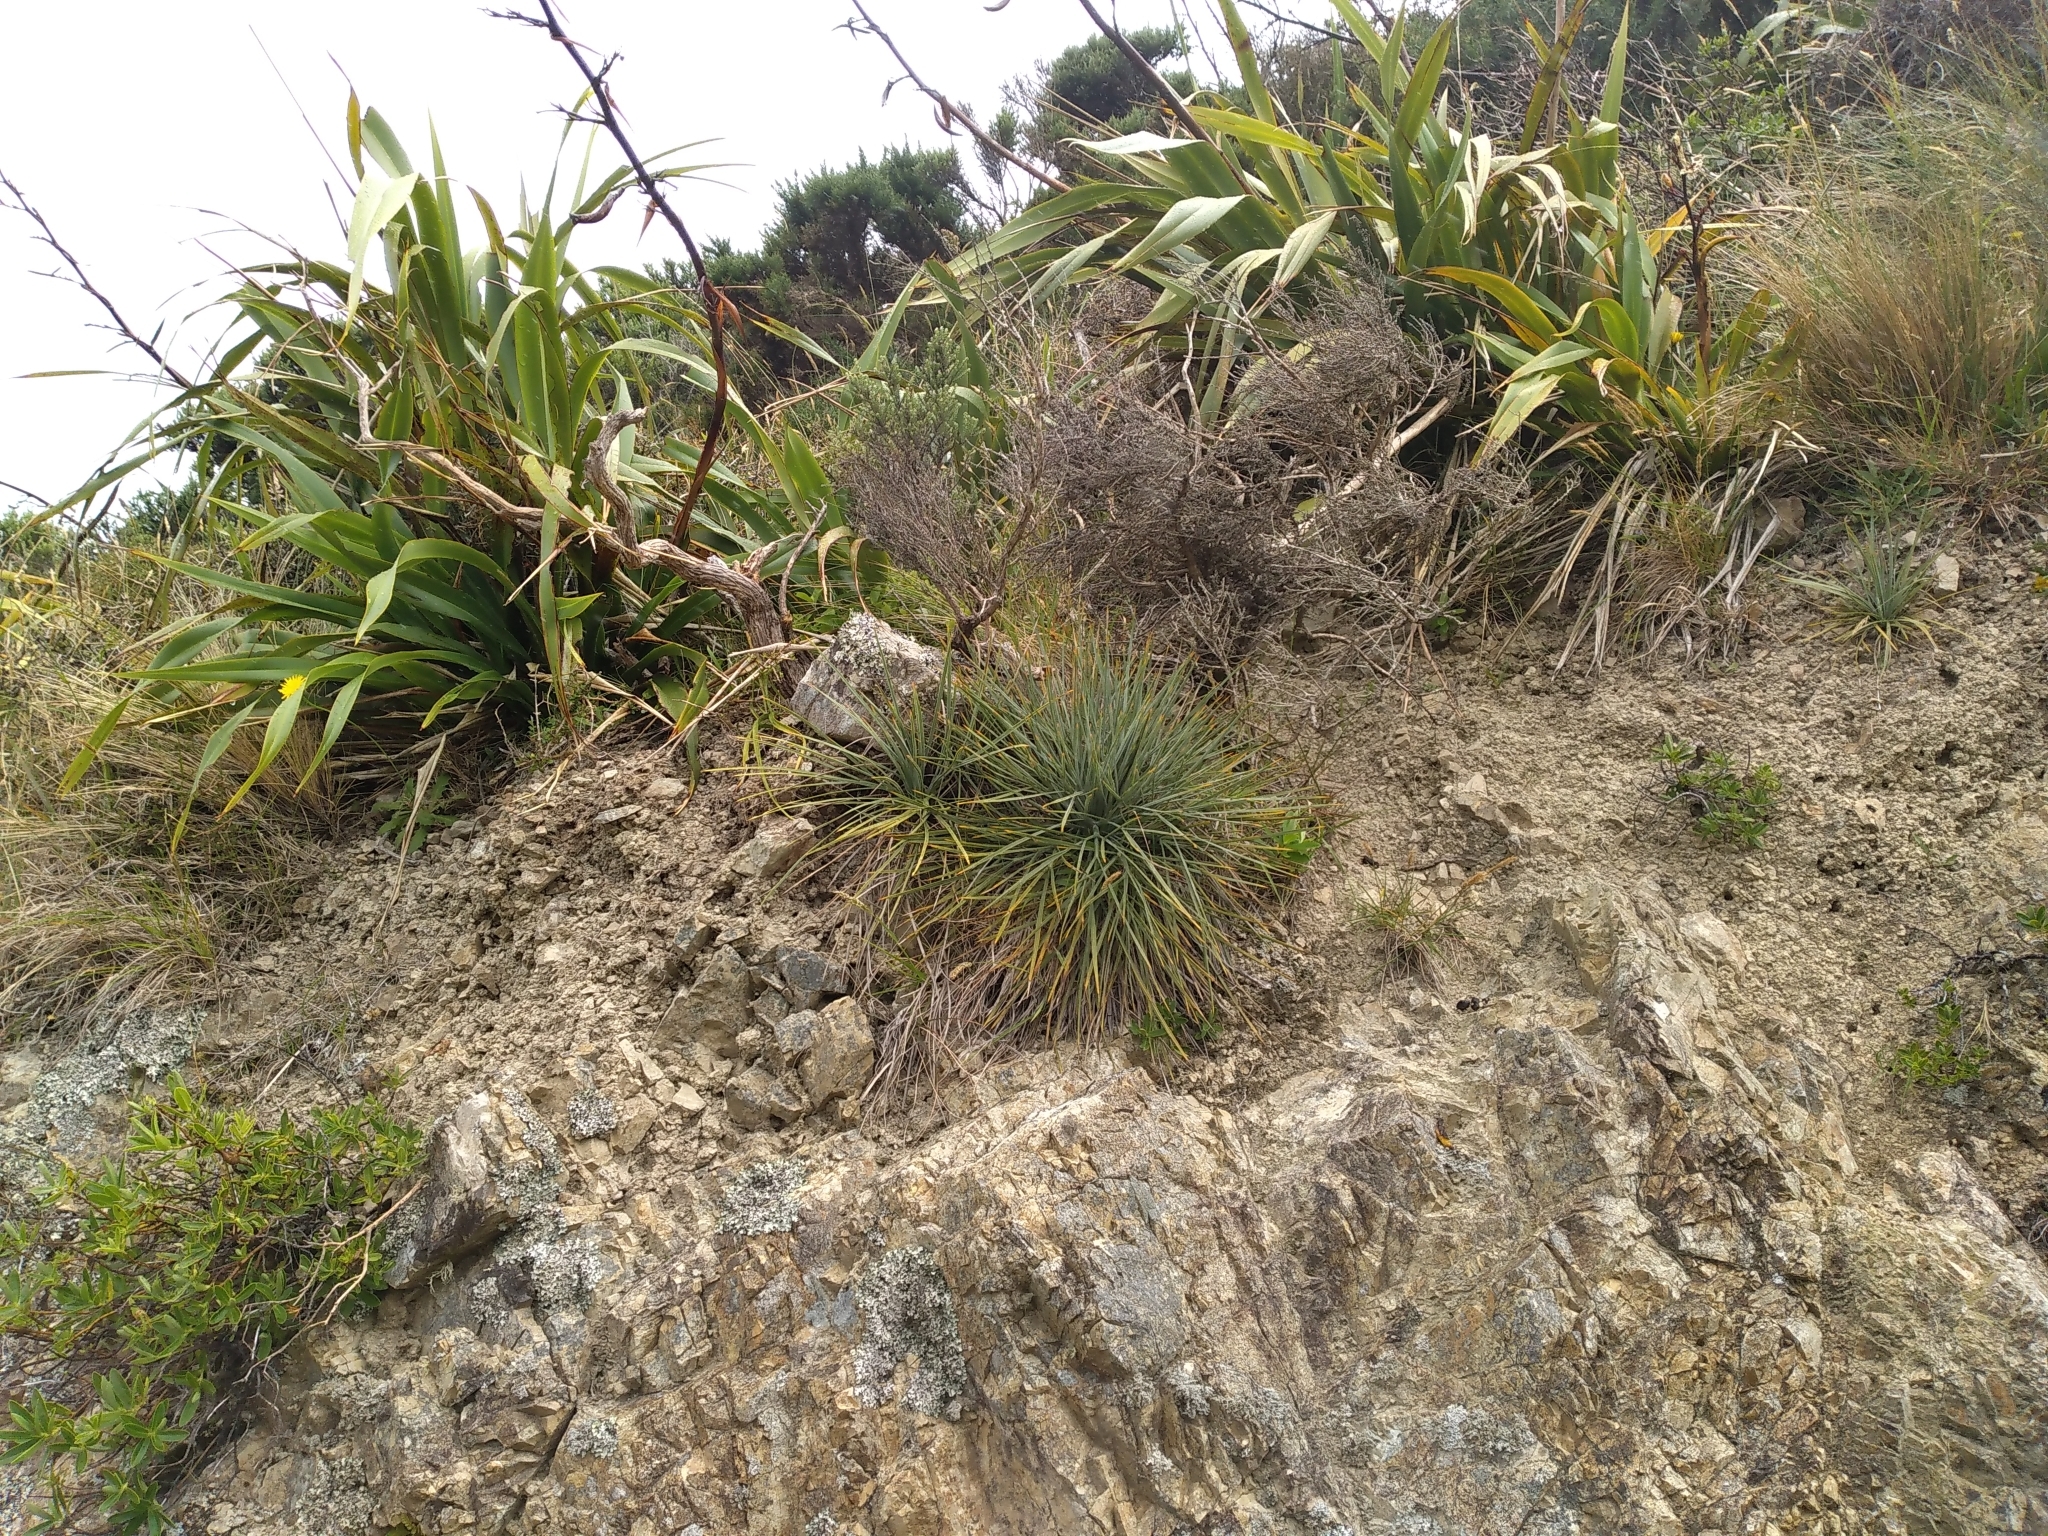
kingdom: Plantae
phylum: Tracheophyta
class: Magnoliopsida
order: Apiales
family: Apiaceae
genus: Aciphylla
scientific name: Aciphylla squarrosa
